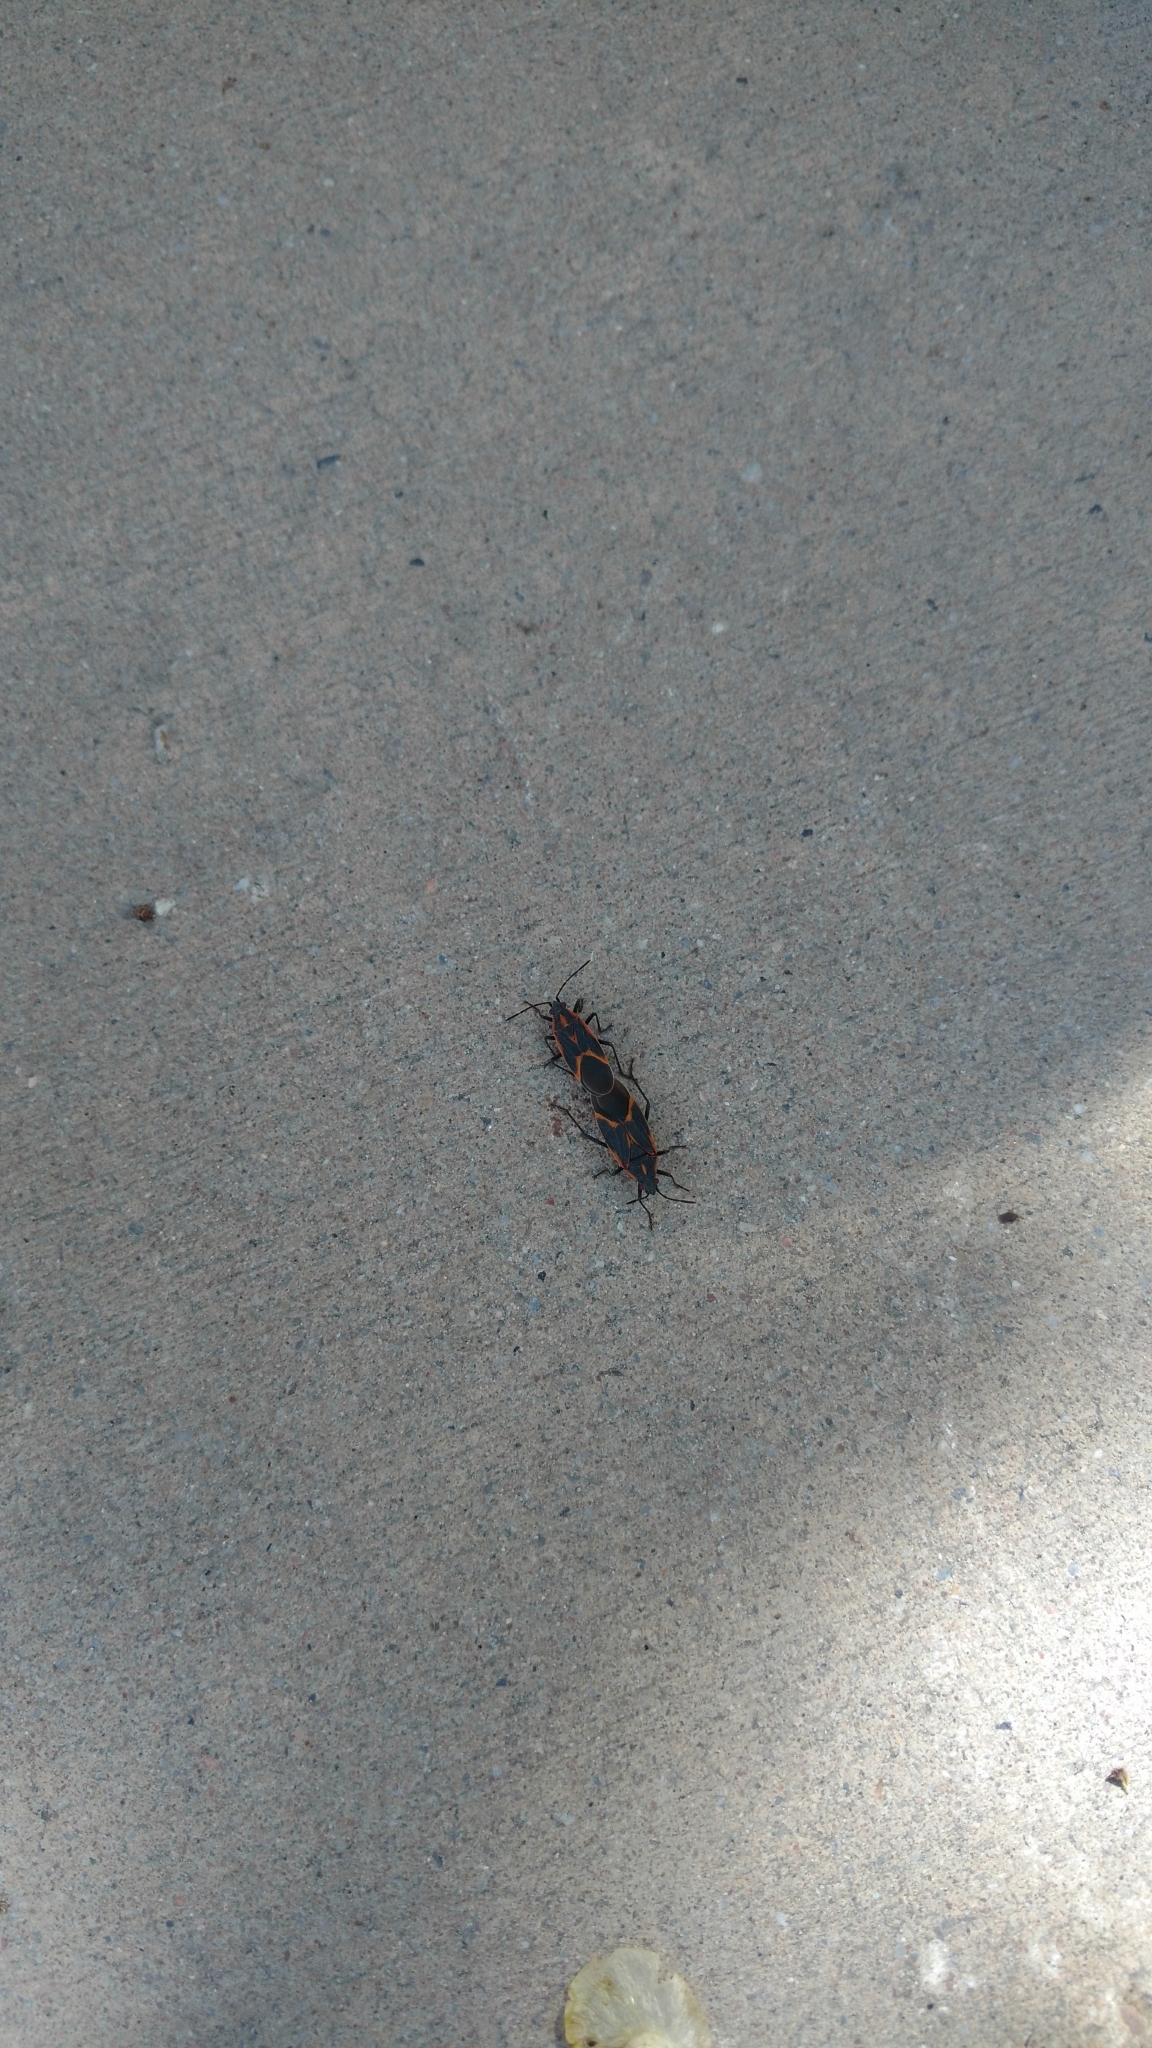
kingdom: Animalia
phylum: Arthropoda
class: Insecta
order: Hemiptera
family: Rhopalidae
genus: Boisea
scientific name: Boisea trivittata
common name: Boxelder bug
